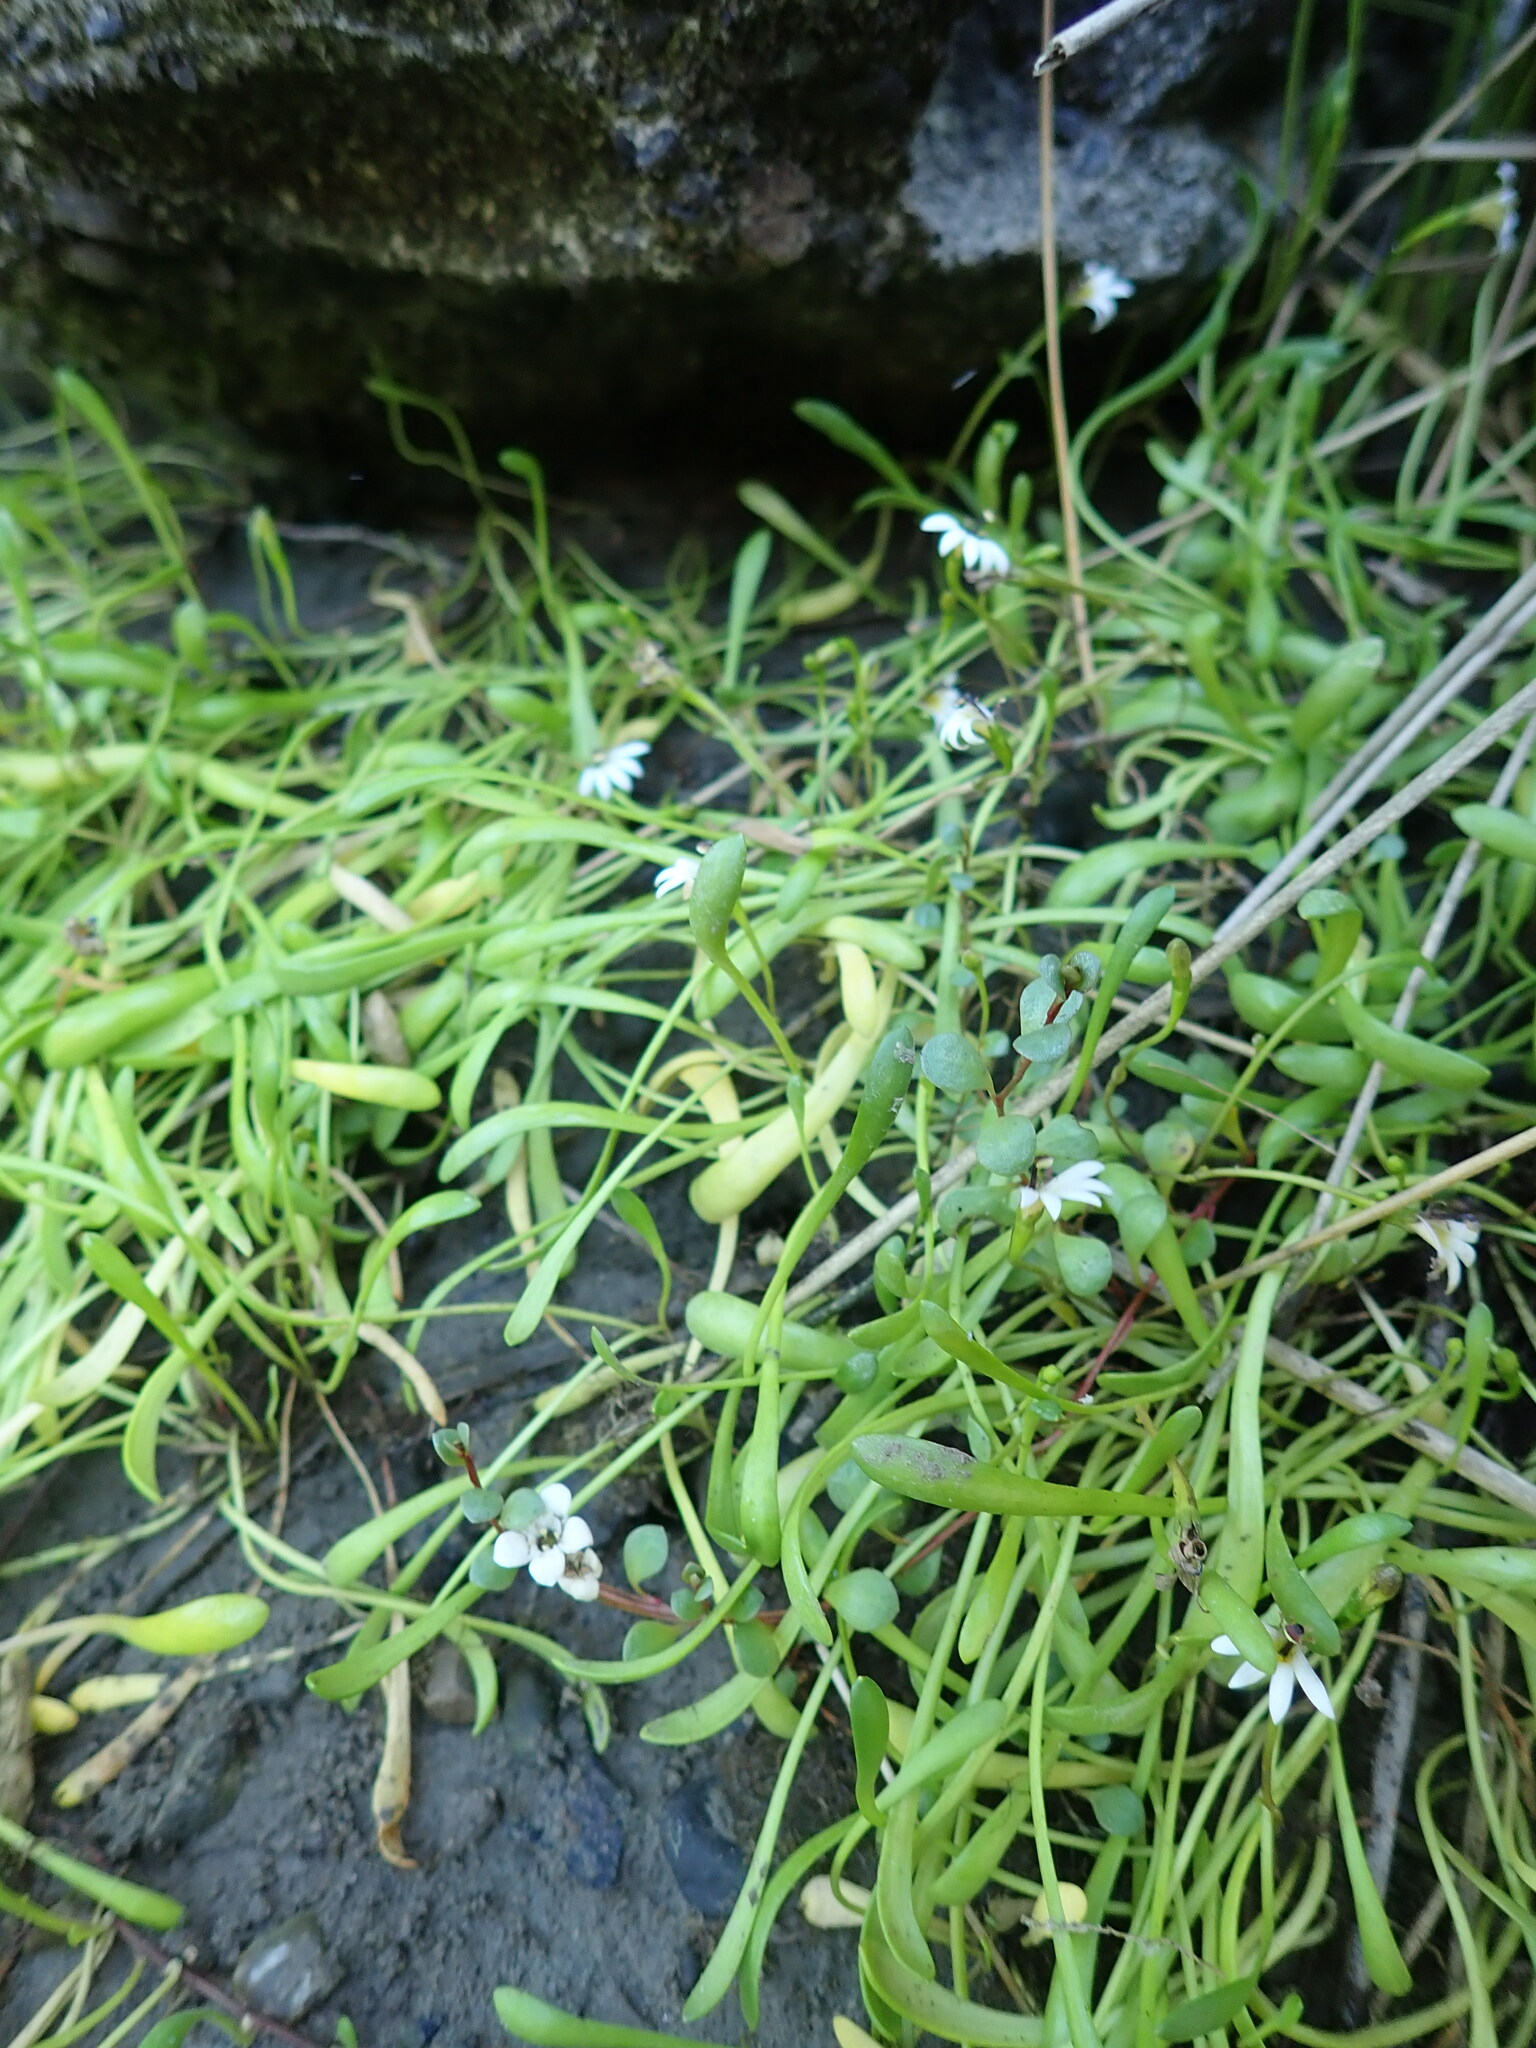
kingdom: Plantae
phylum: Tracheophyta
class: Magnoliopsida
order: Asterales
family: Goodeniaceae
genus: Goodenia
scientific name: Goodenia radicans
